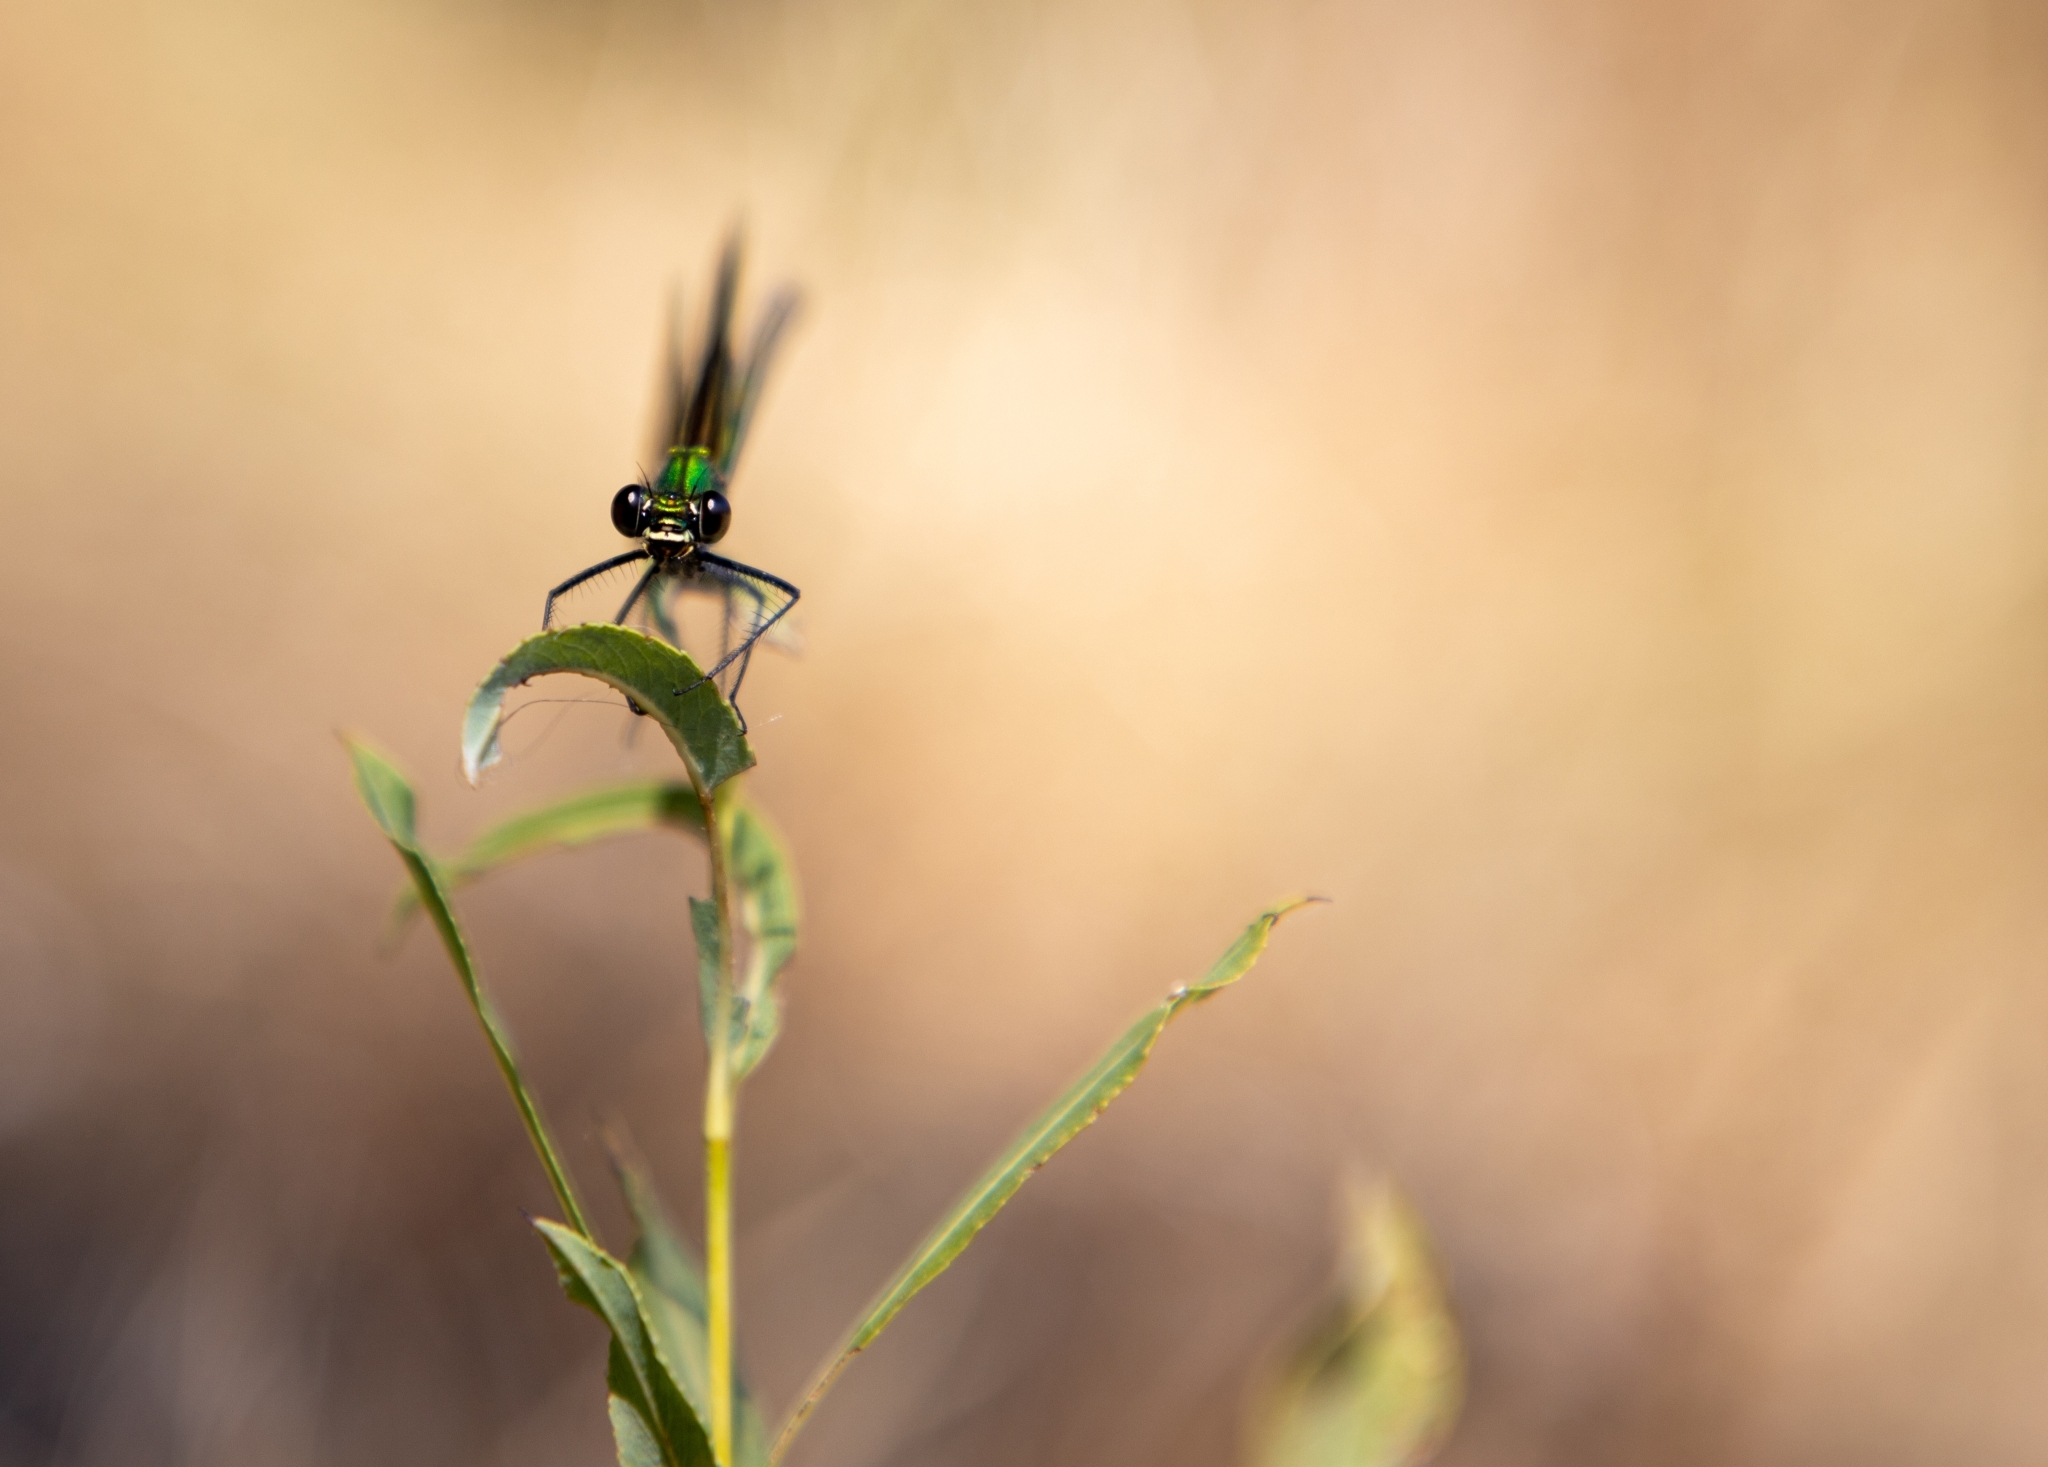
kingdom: Animalia
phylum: Arthropoda
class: Insecta
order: Odonata
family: Calopterygidae
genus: Calopteryx
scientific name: Calopteryx virgo
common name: Beautiful demoiselle
